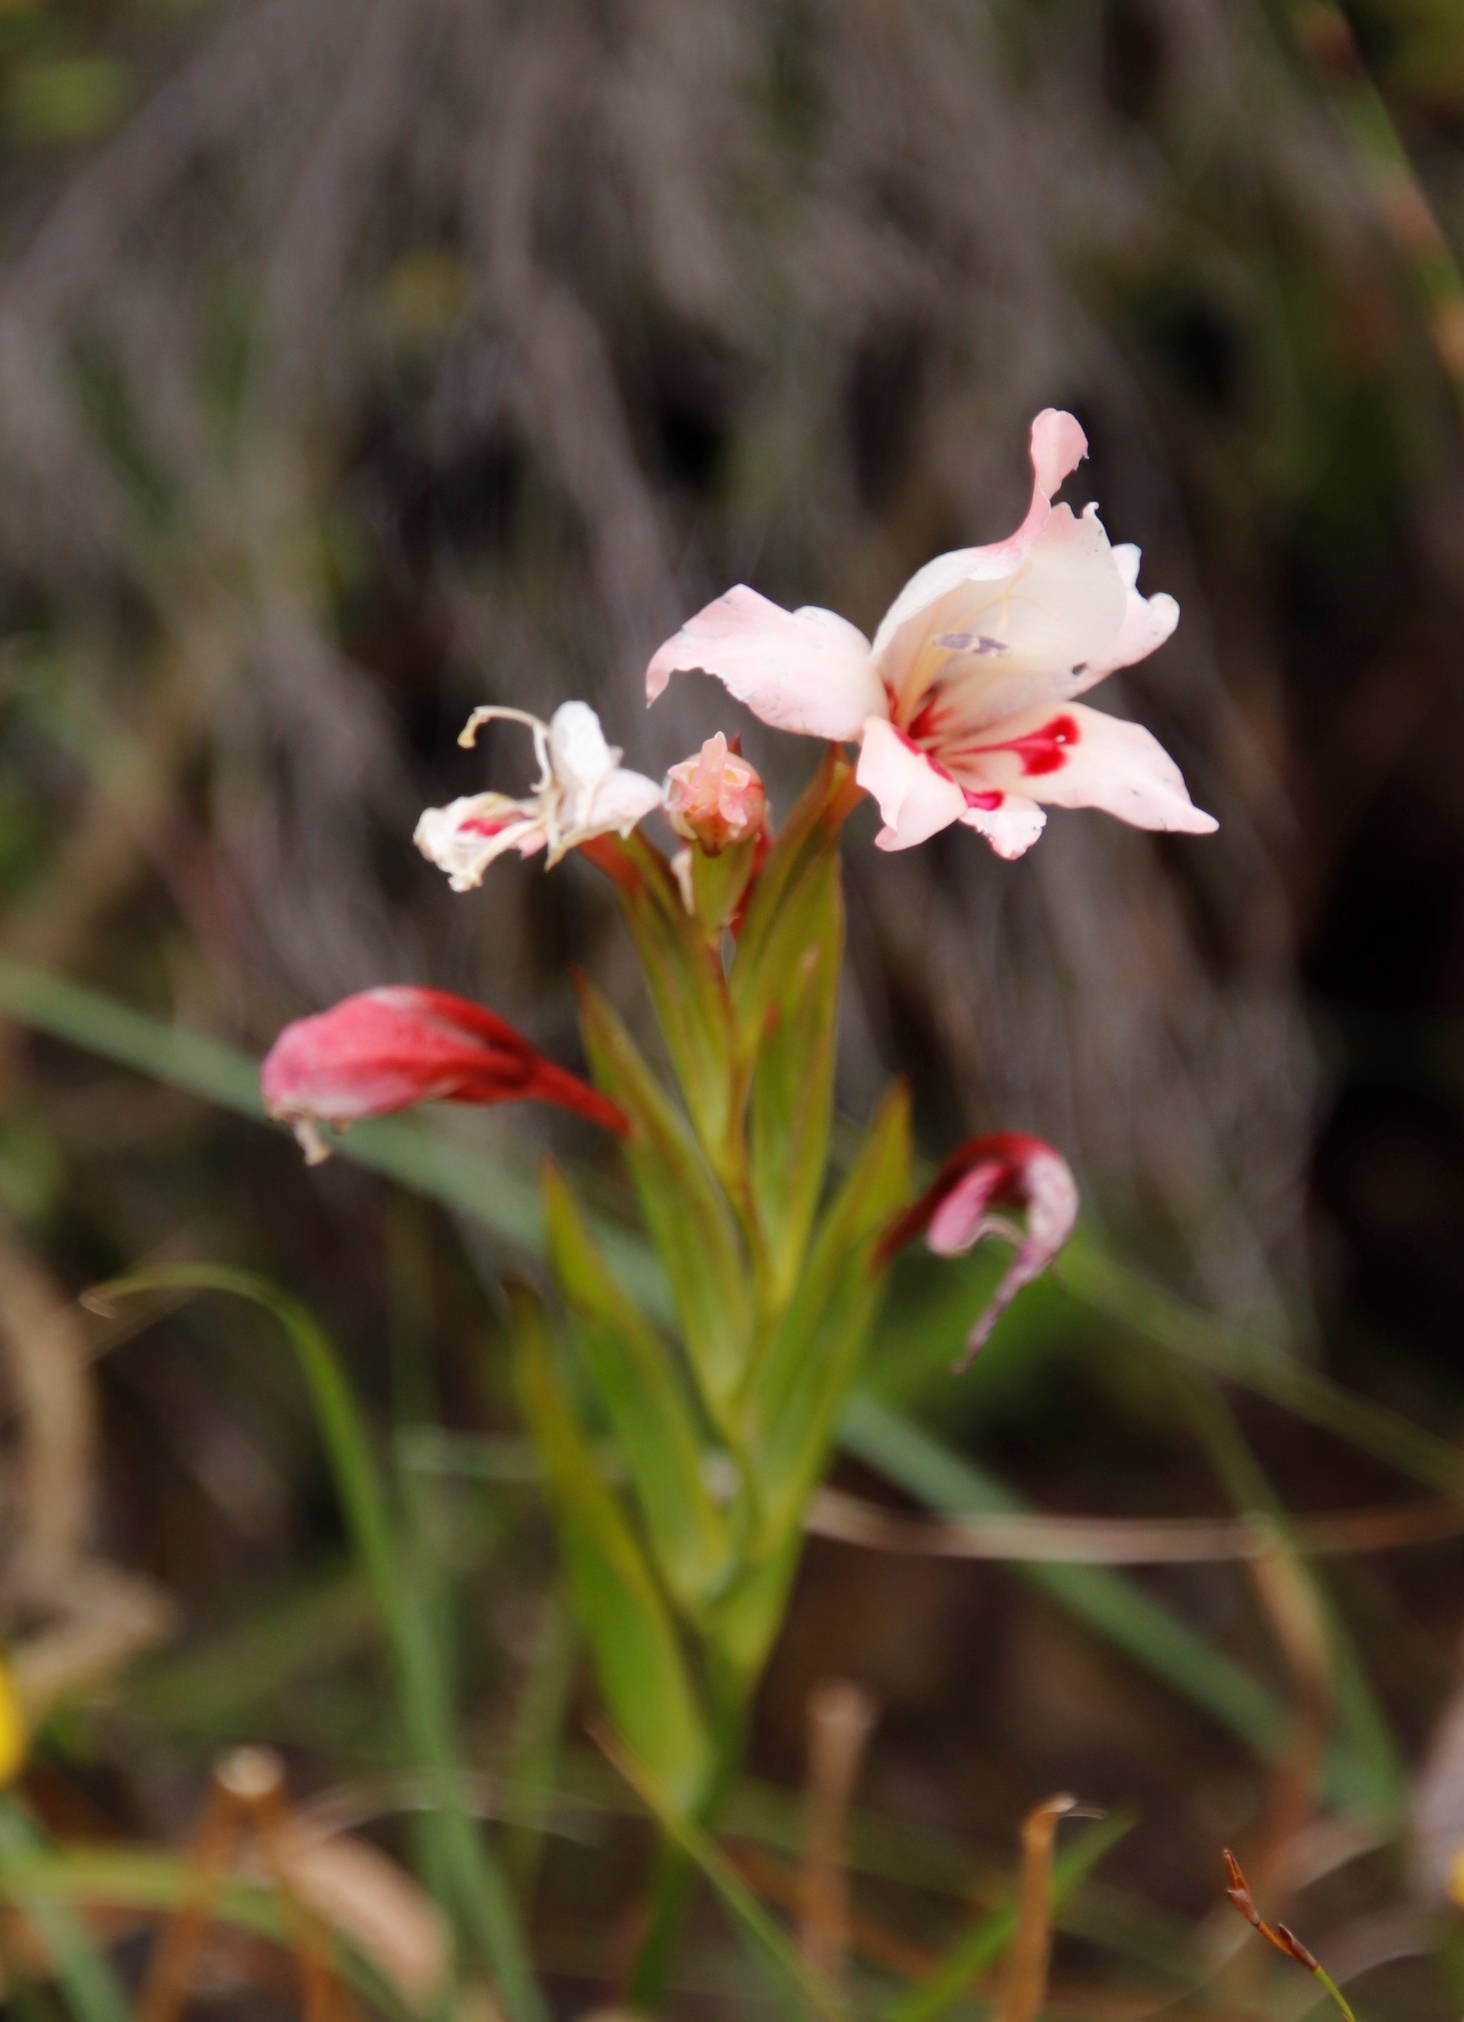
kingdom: Plantae
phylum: Tracheophyta
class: Liliopsida
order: Asparagales
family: Iridaceae
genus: Gladiolus
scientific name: Gladiolus carneus
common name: Painted-lady
